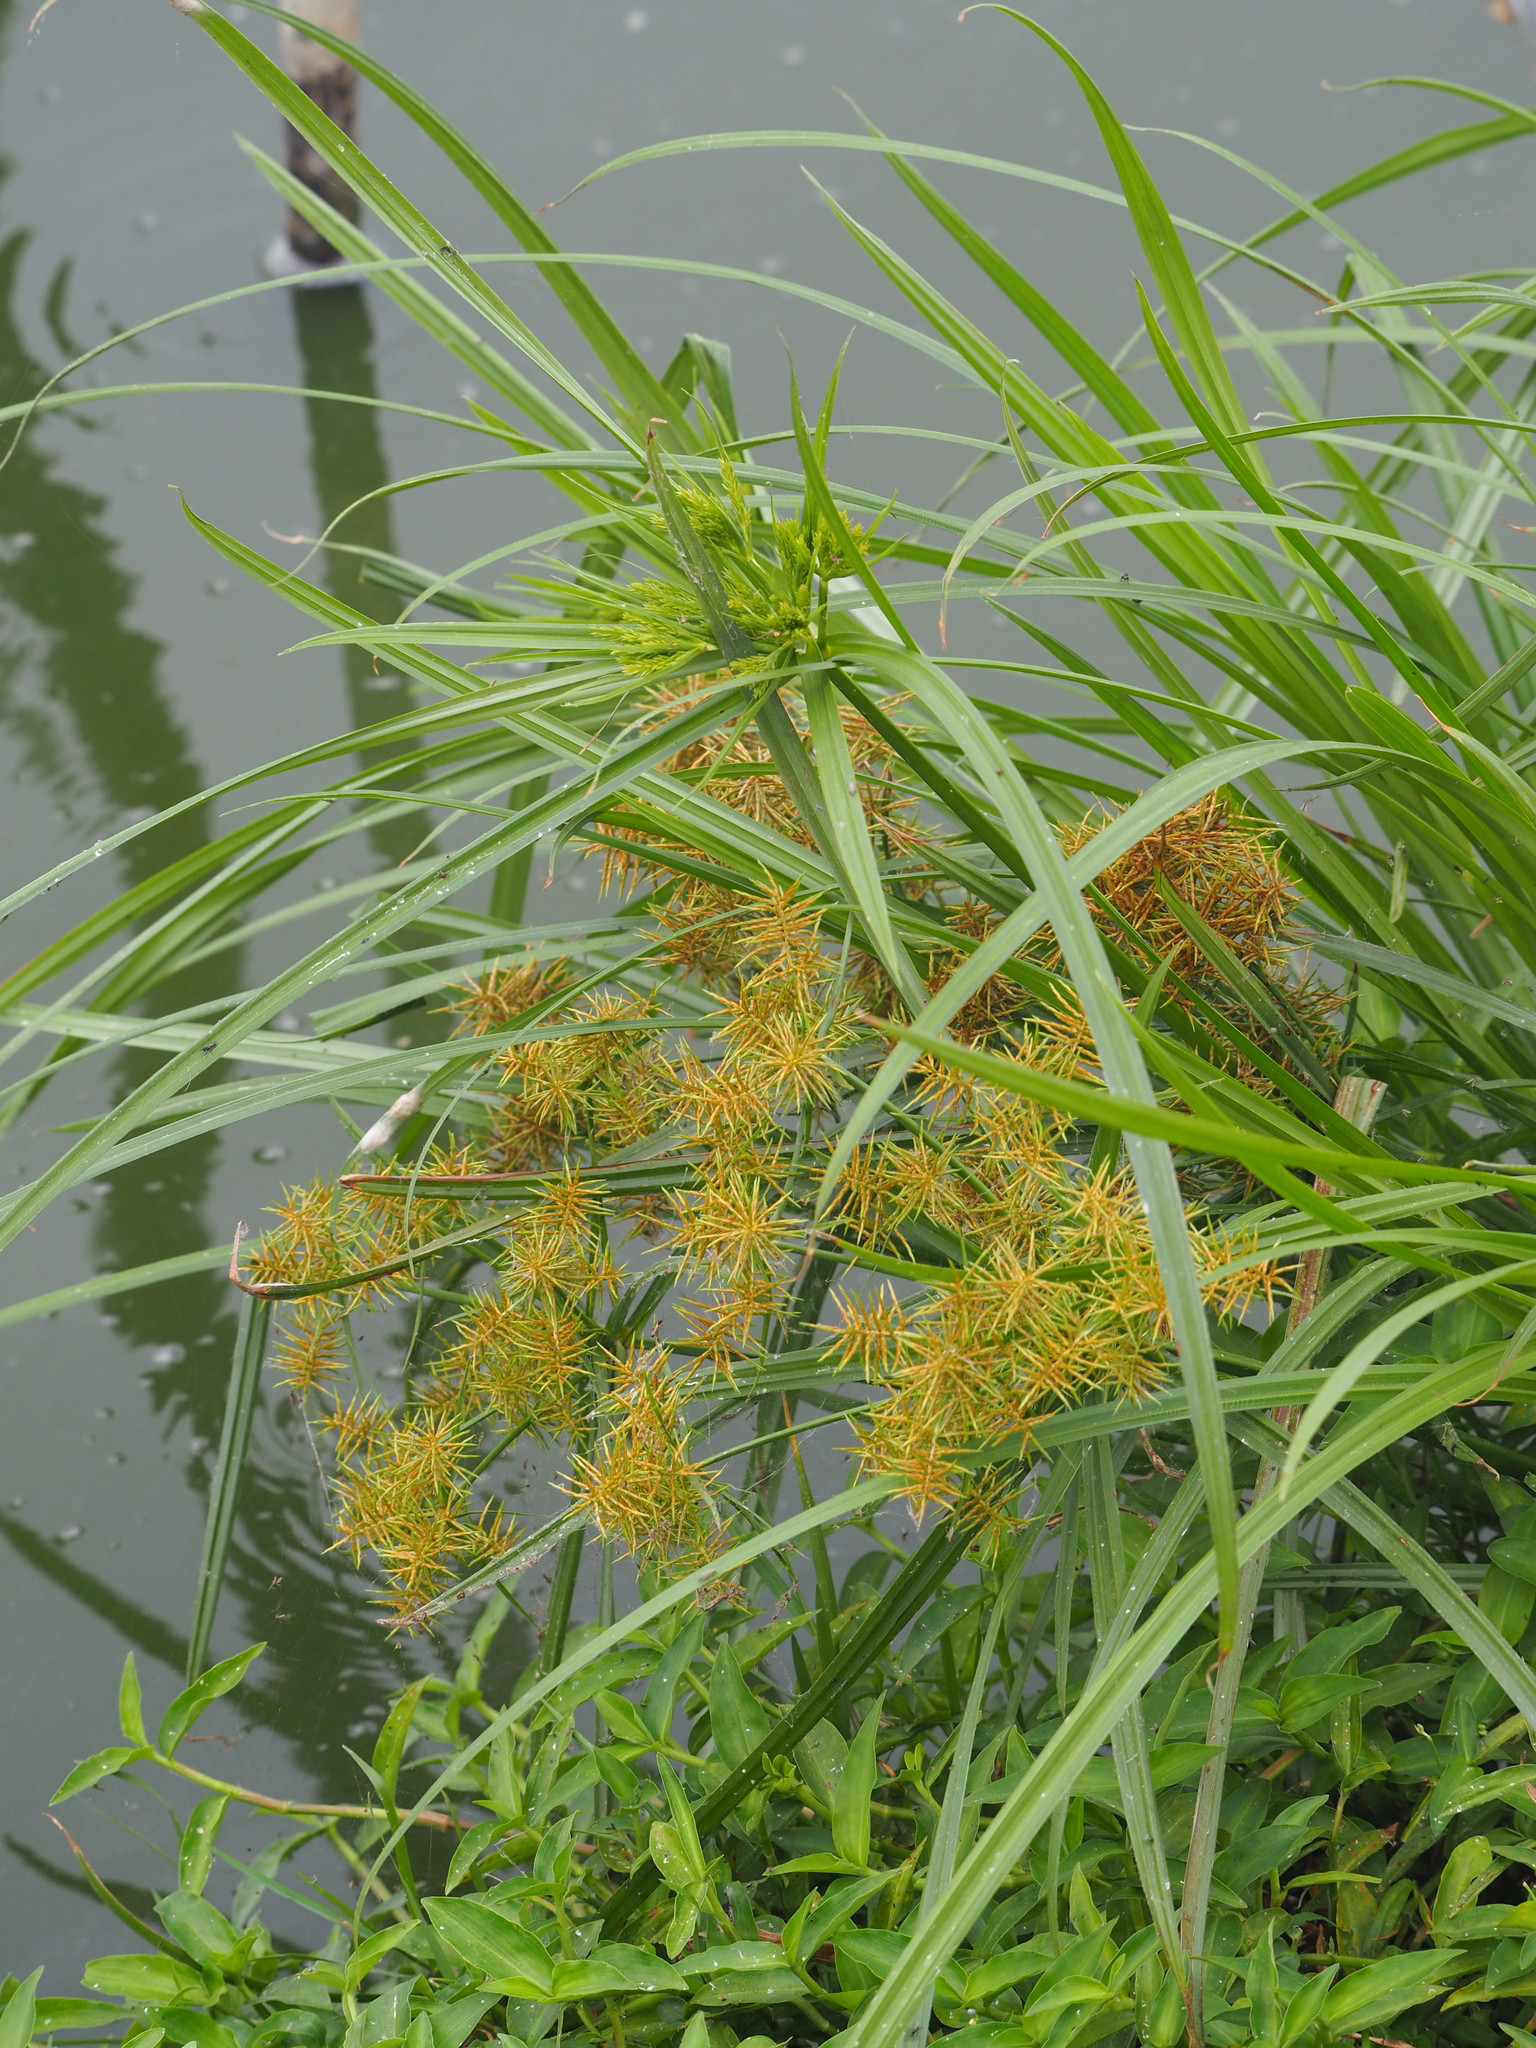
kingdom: Plantae
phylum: Tracheophyta
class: Liliopsida
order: Poales
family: Cyperaceae
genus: Cyperus
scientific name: Cyperus odoratus
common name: Fragrant flatsedge
